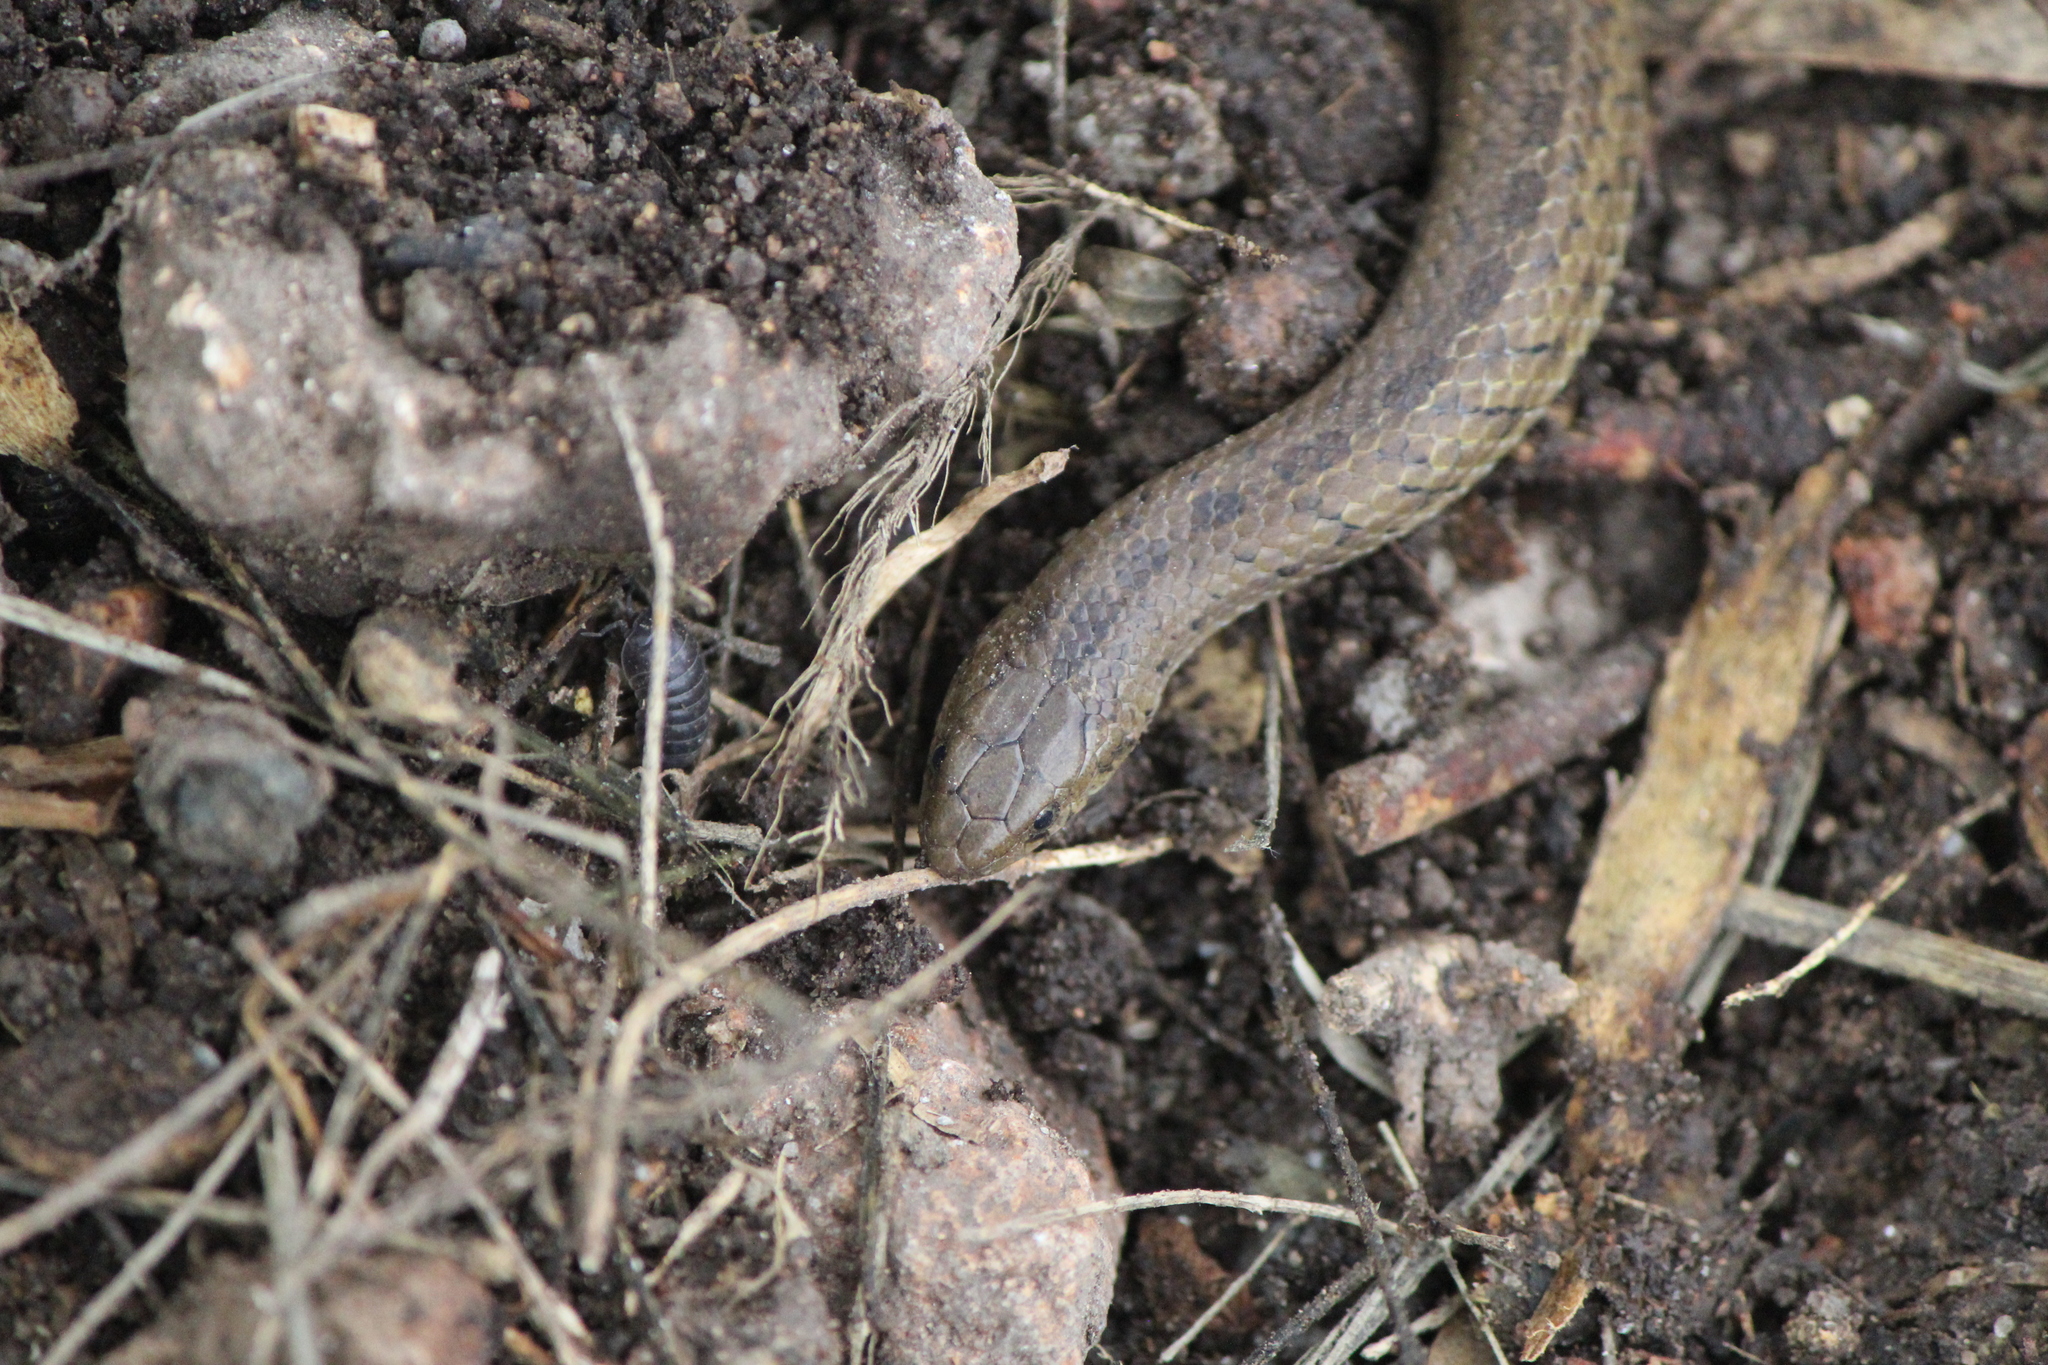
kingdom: Animalia
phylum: Chordata
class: Squamata
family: Colubridae
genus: Conopsis
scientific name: Conopsis lineata
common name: Lined tolucan earthsnake
